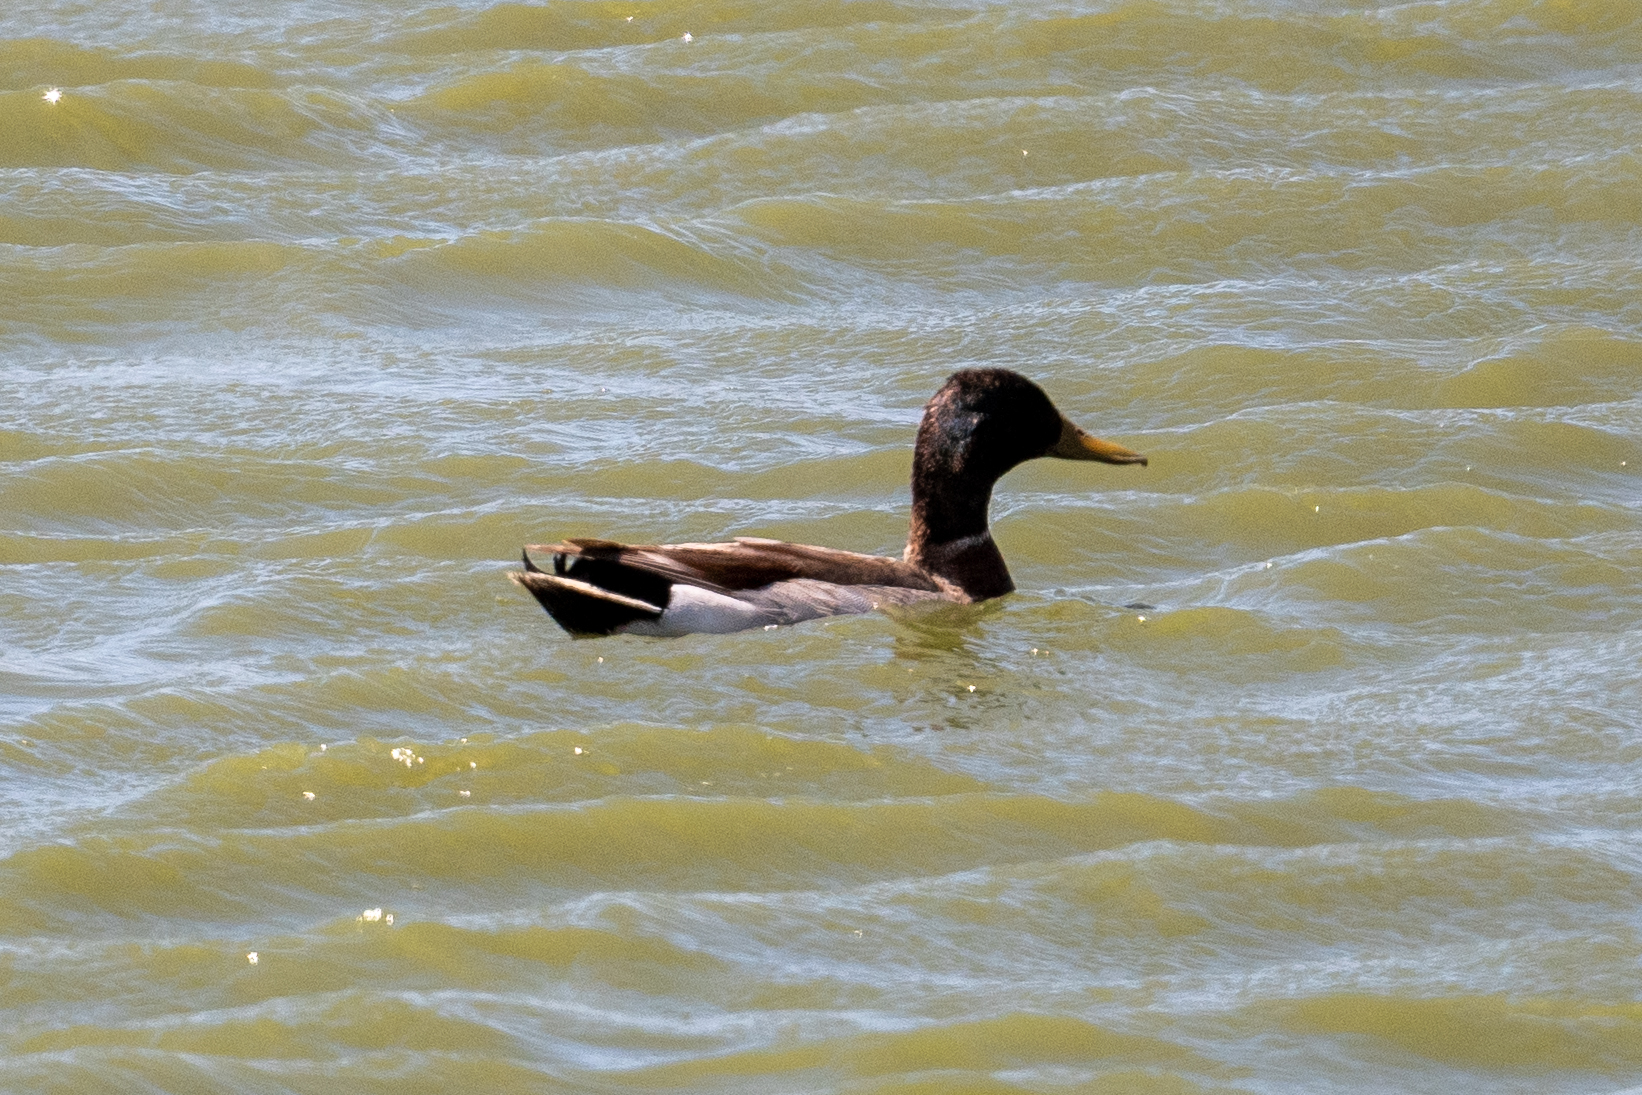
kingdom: Animalia
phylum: Chordata
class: Aves
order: Anseriformes
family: Anatidae
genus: Anas
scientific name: Anas platyrhynchos
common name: Mallard
